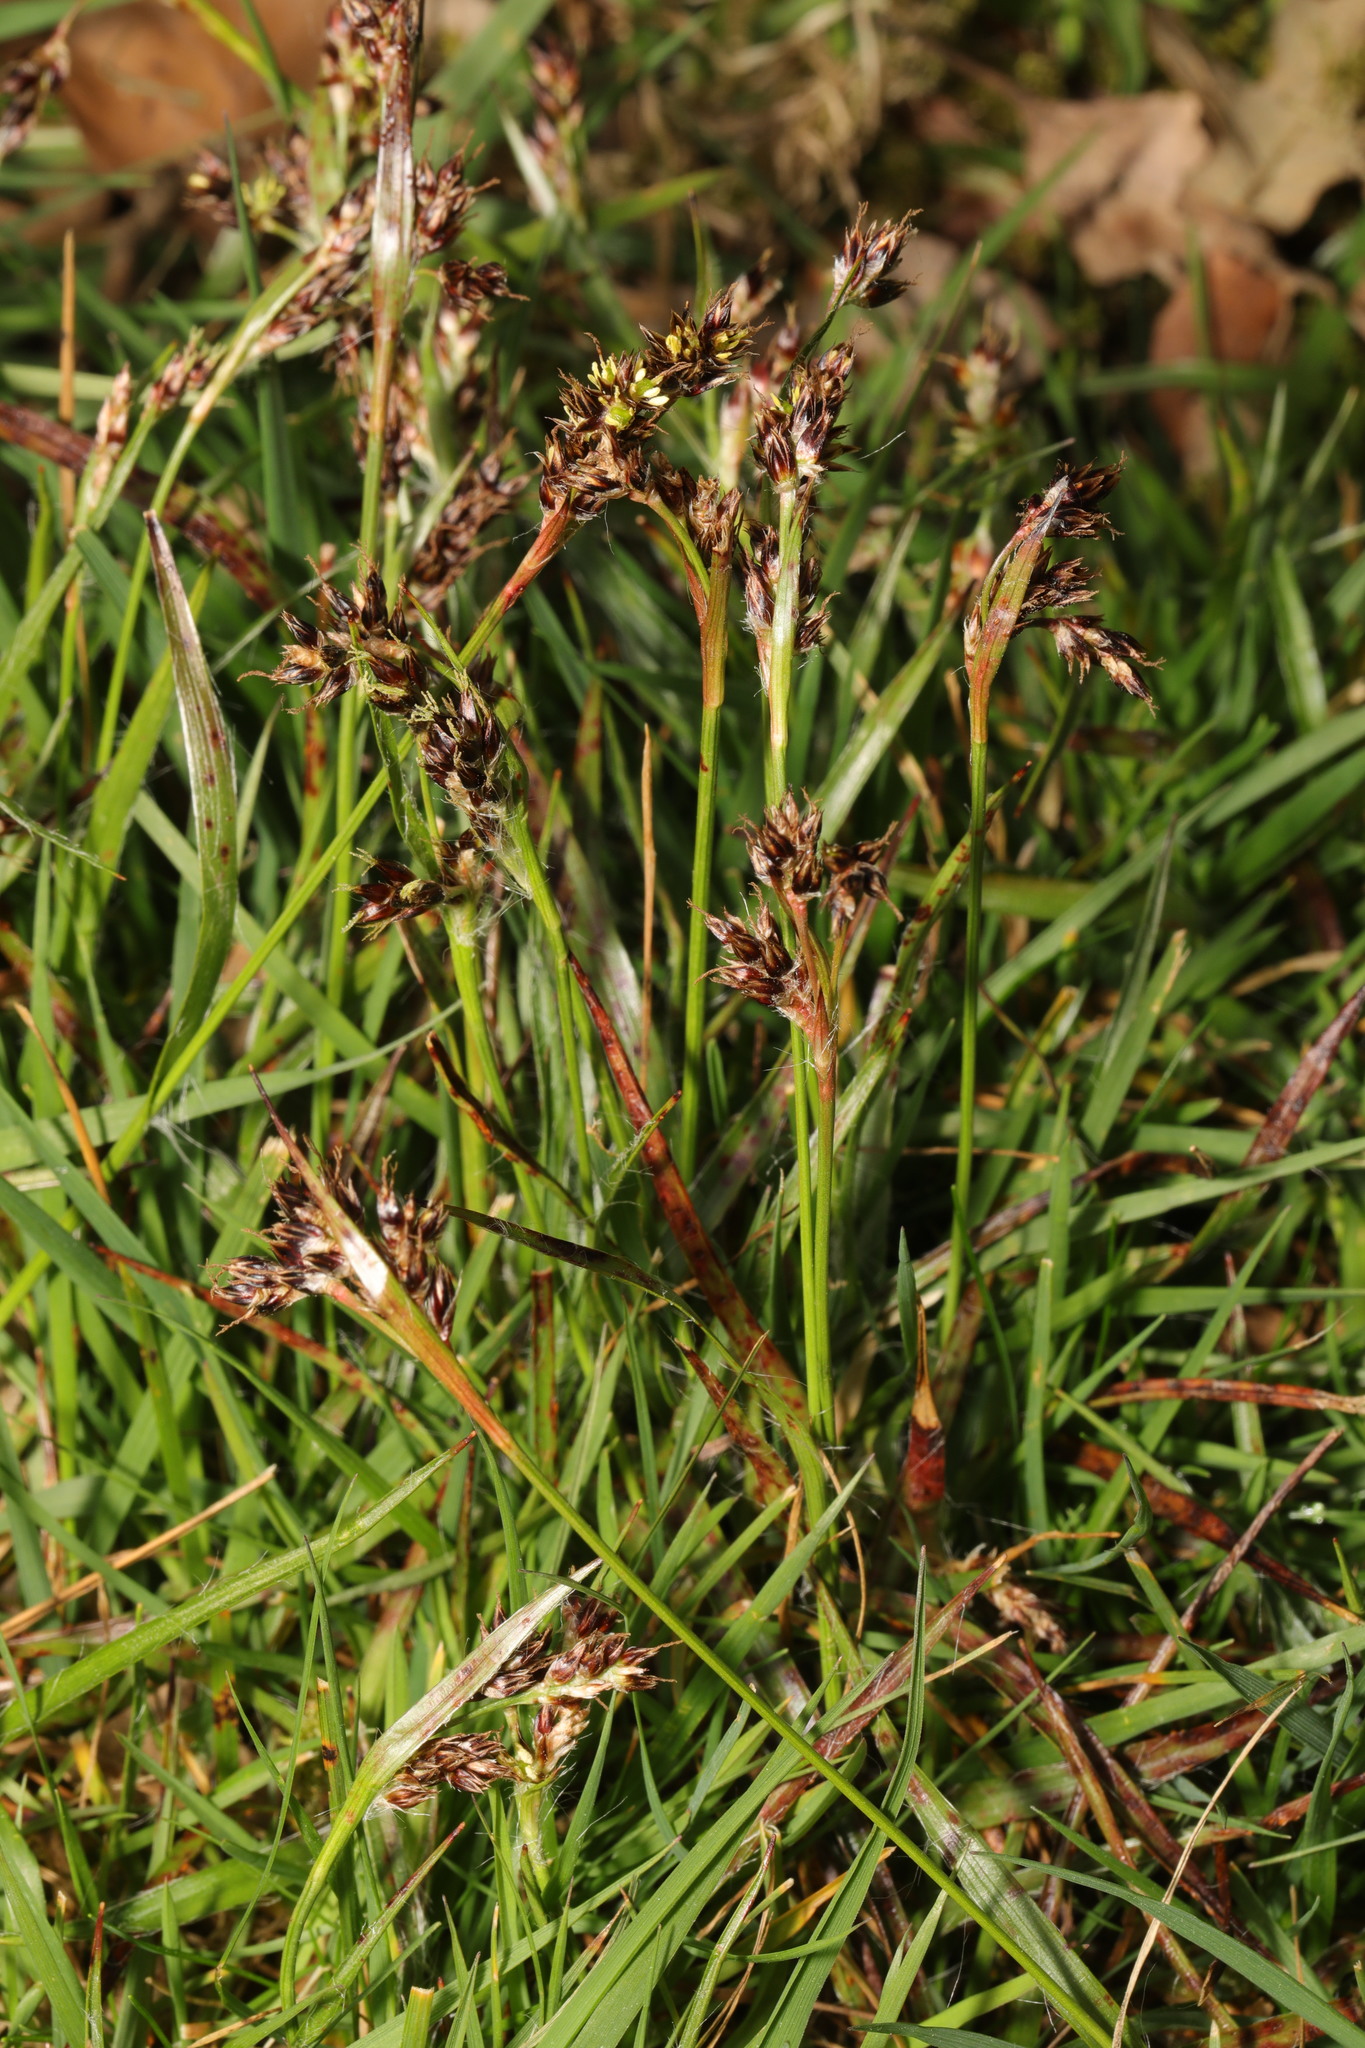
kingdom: Plantae
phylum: Tracheophyta
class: Liliopsida
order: Poales
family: Juncaceae
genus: Luzula
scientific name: Luzula campestris
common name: Field wood-rush
